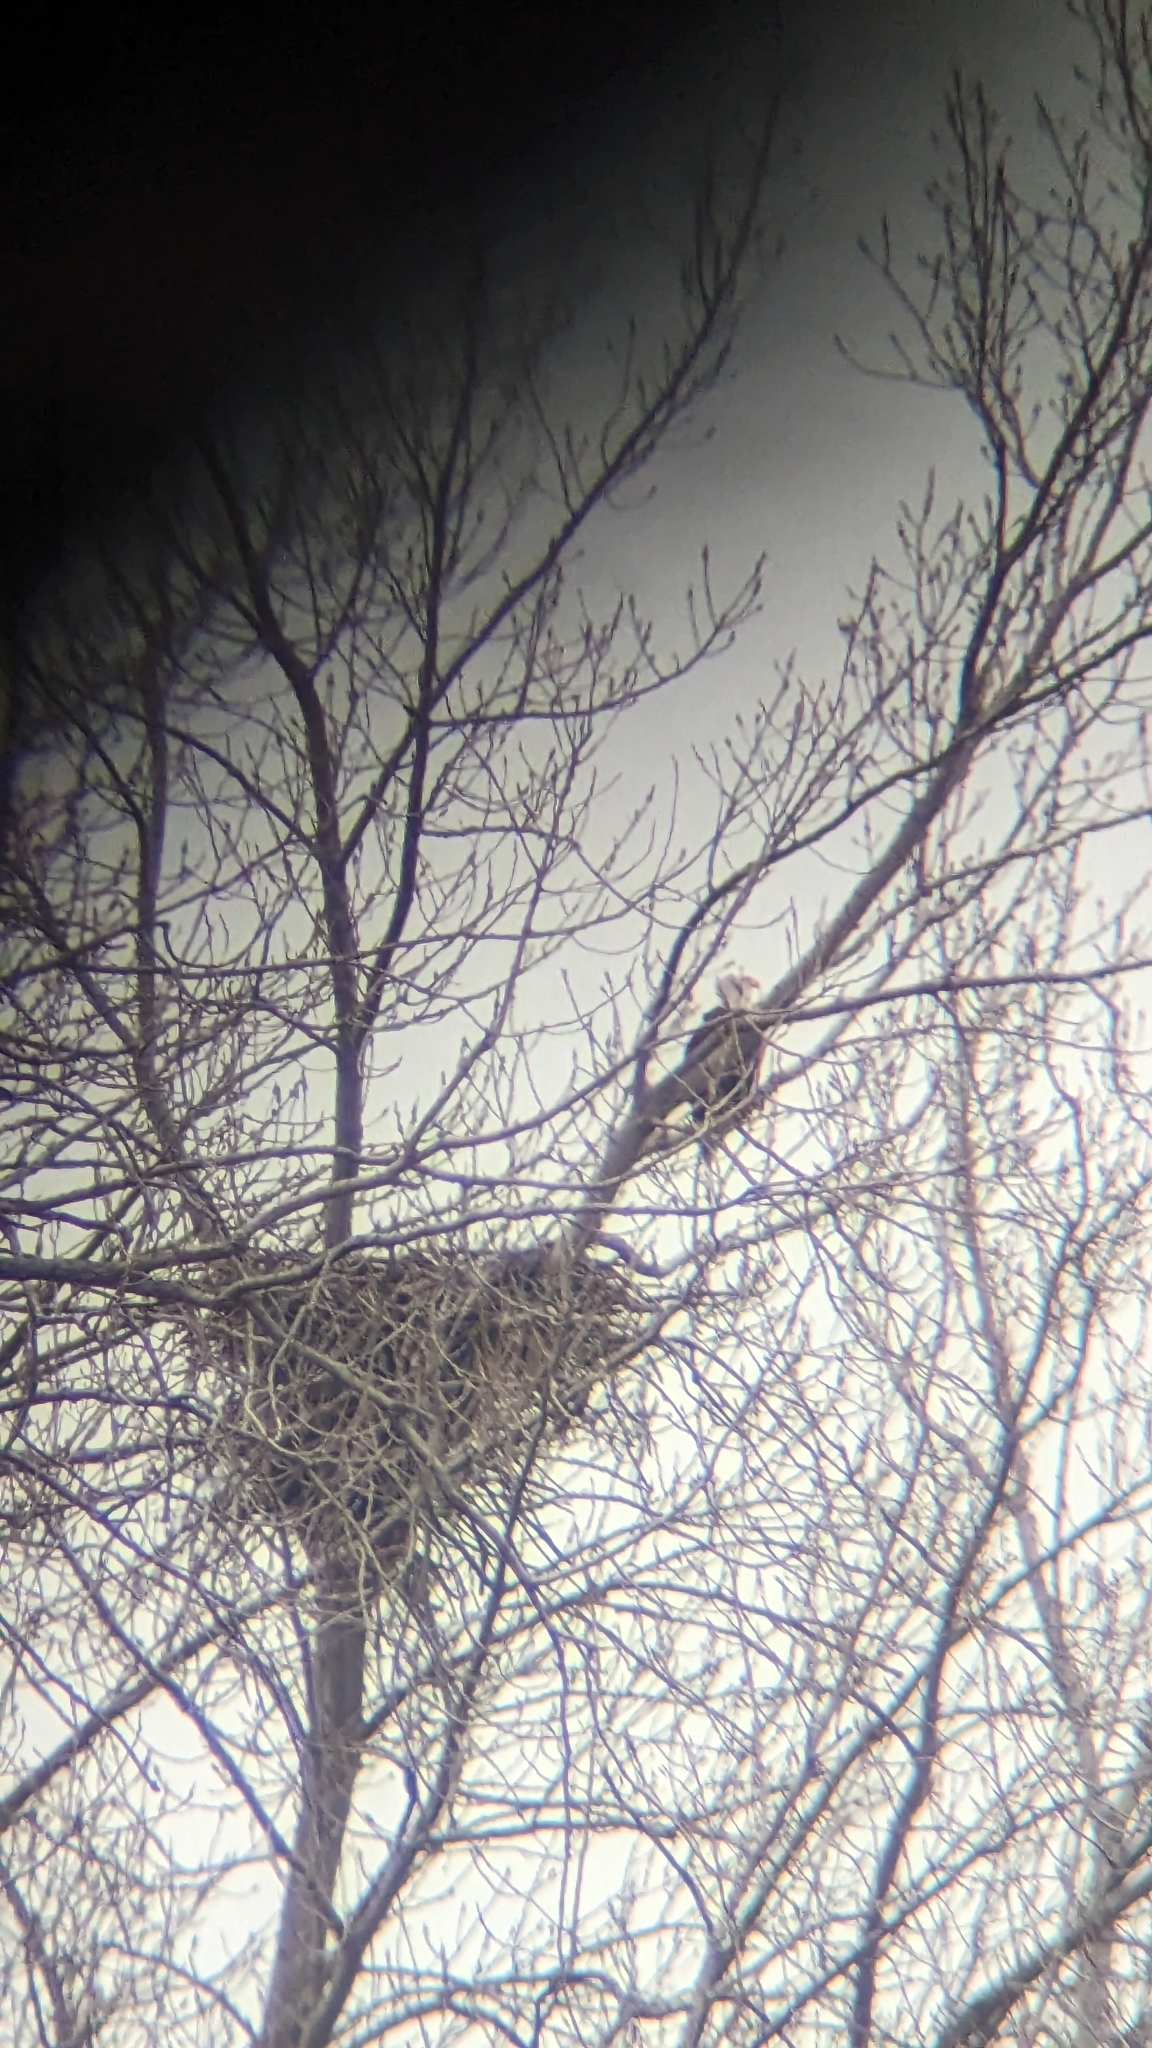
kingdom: Animalia
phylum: Chordata
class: Aves
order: Accipitriformes
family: Accipitridae
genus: Haliaeetus
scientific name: Haliaeetus leucocephalus
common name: Bald eagle
